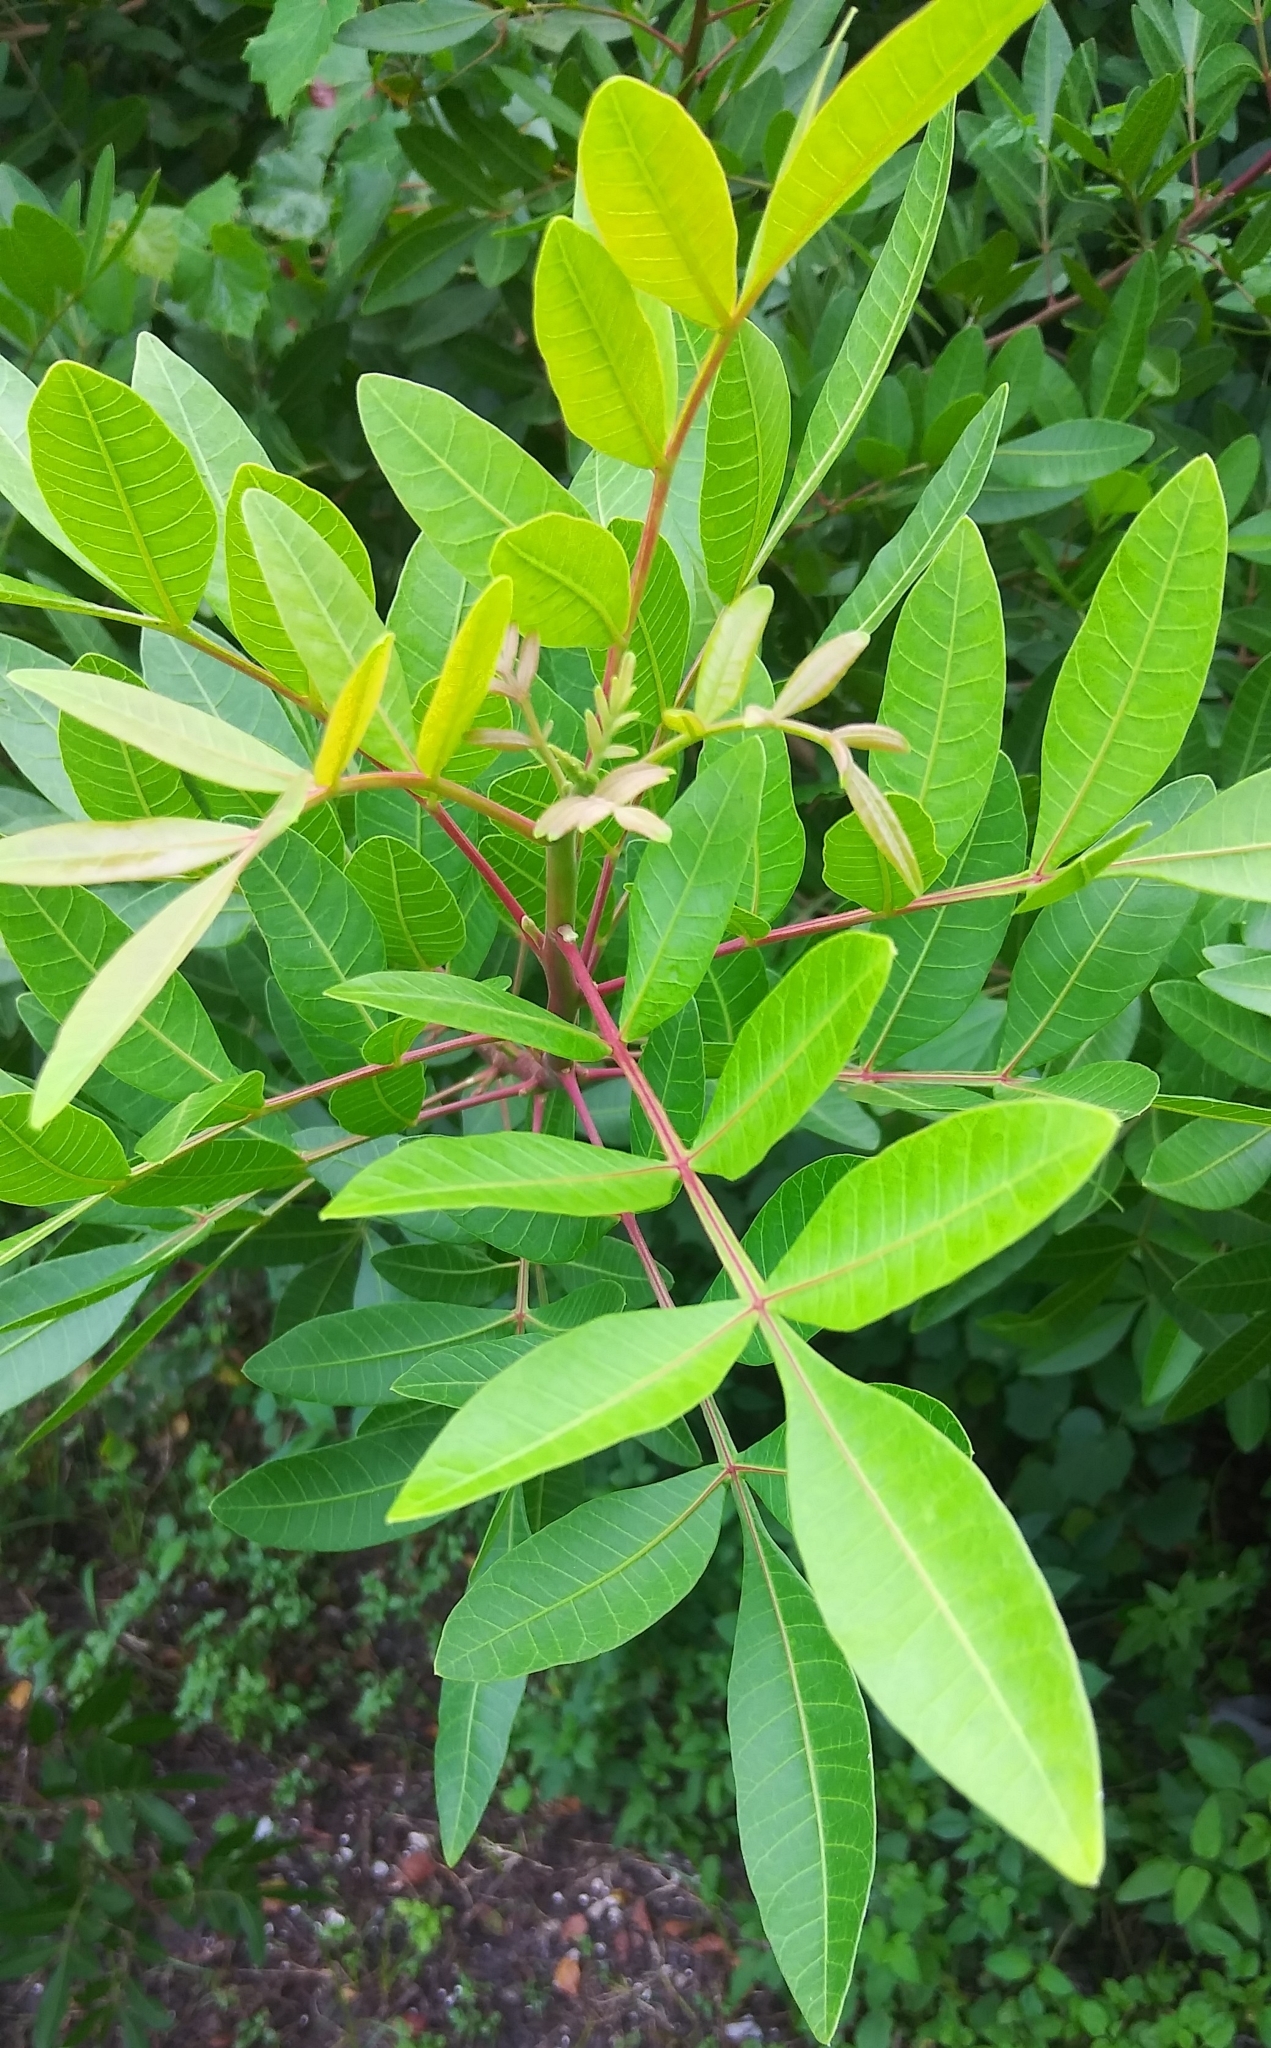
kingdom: Plantae
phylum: Tracheophyta
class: Magnoliopsida
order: Sapindales
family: Anacardiaceae
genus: Schinus
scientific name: Schinus terebinthifolia
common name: Brazilian peppertree
